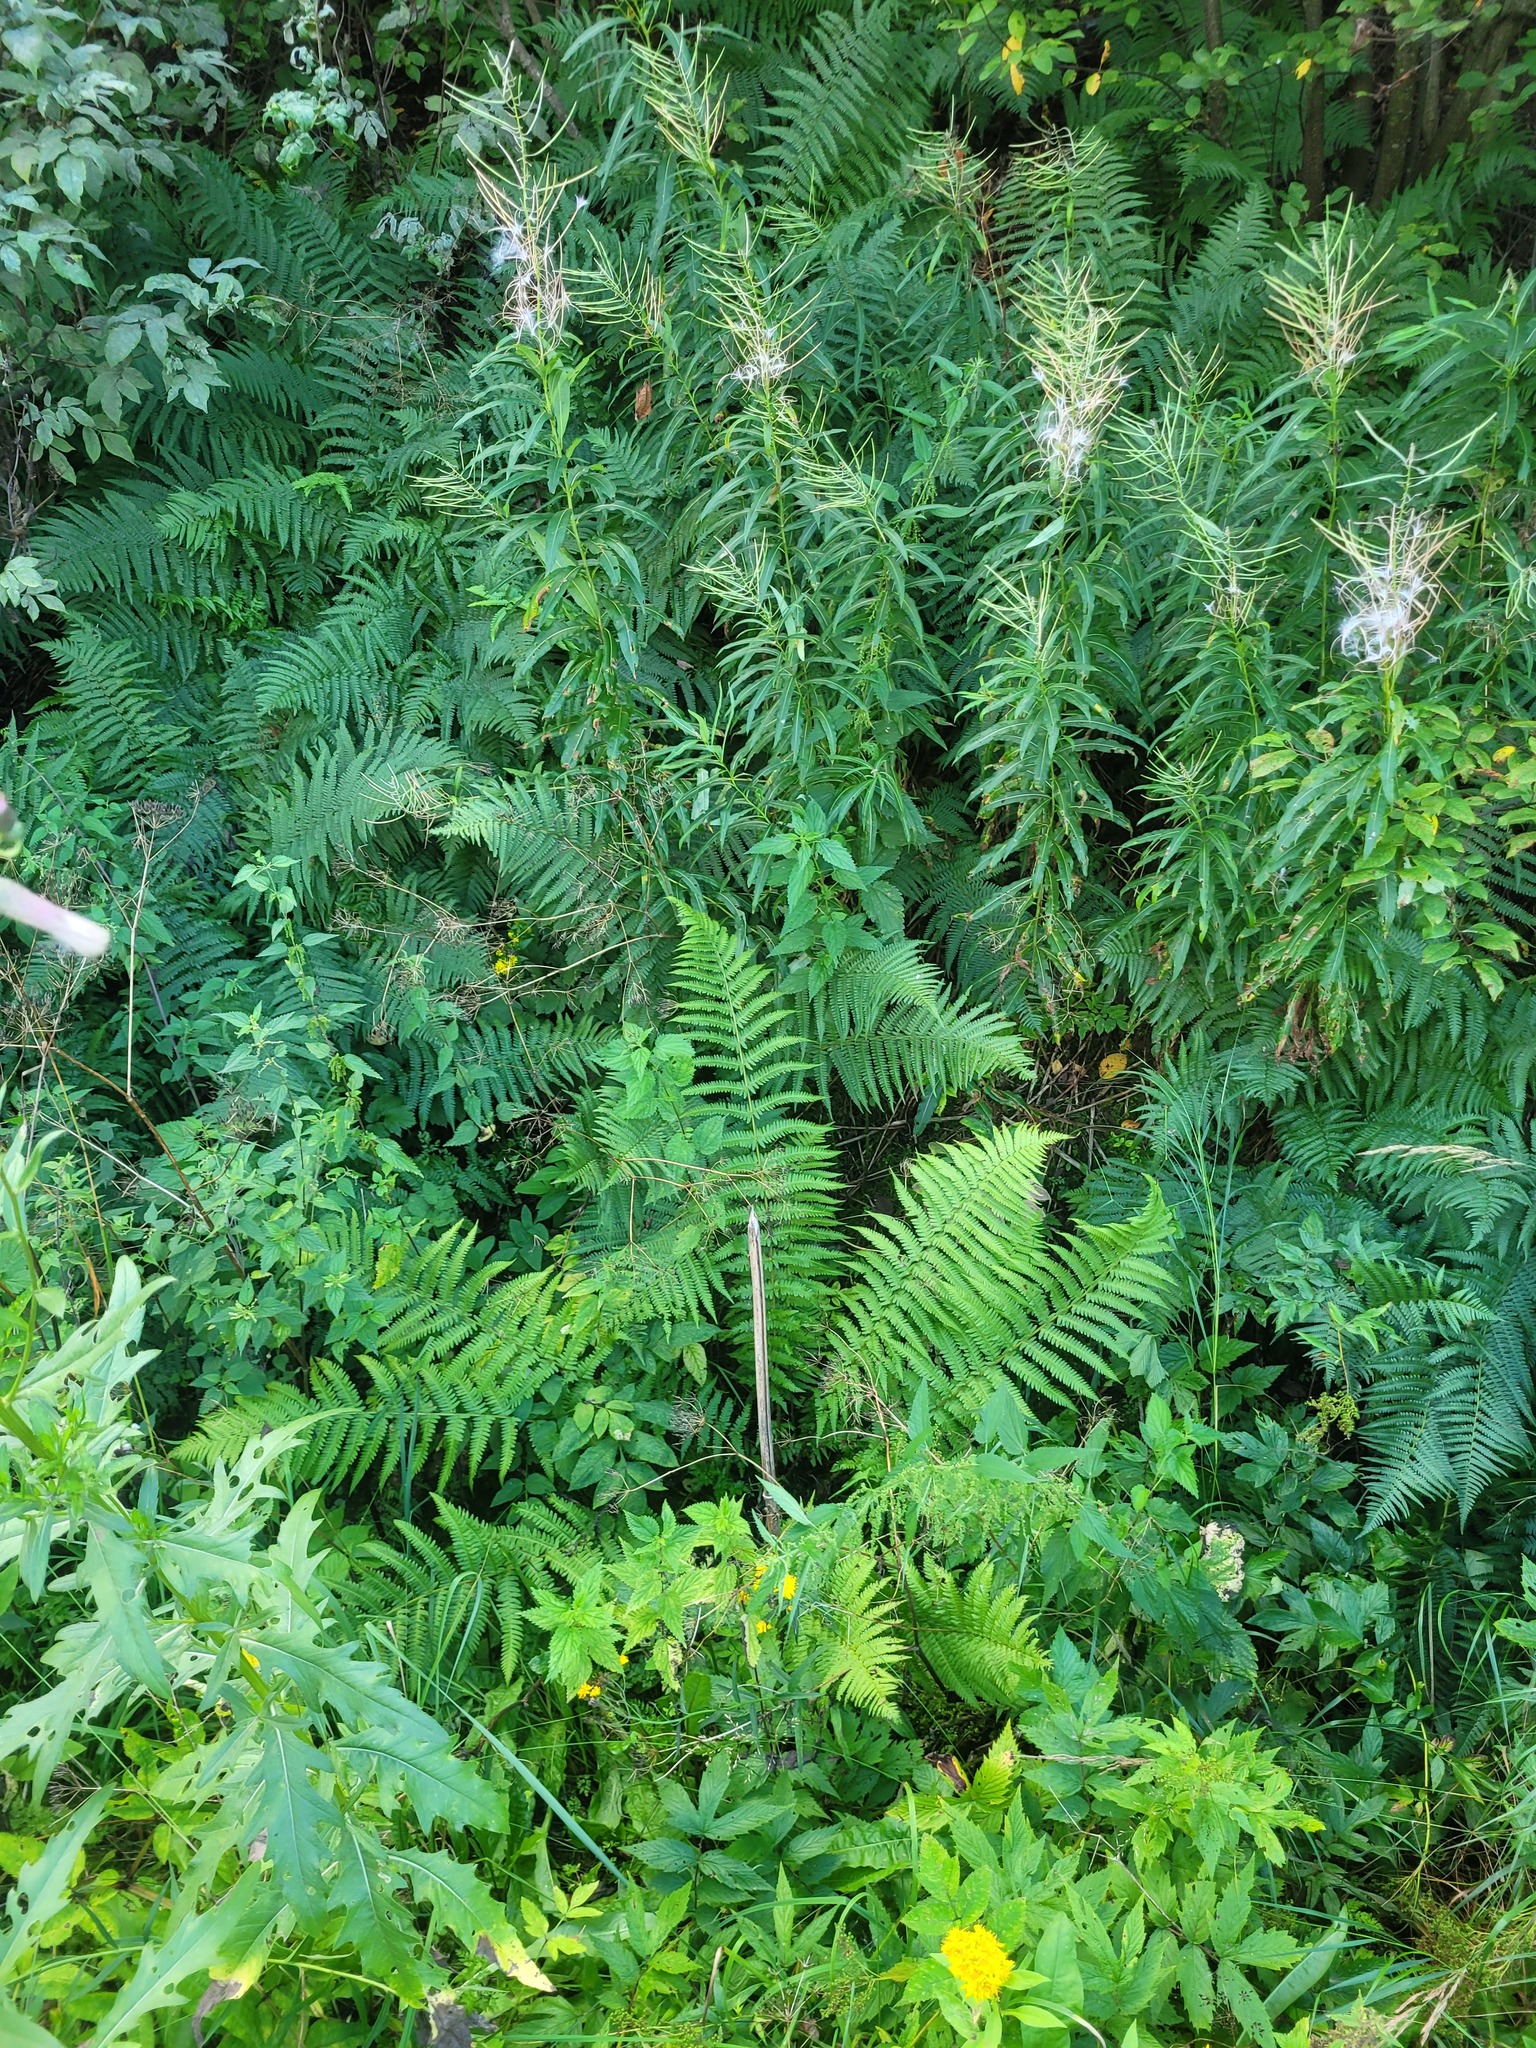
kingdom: Plantae
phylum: Tracheophyta
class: Polypodiopsida
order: Polypodiales
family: Dryopteridaceae
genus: Dryopteris
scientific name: Dryopteris filix-mas
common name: Male fern
